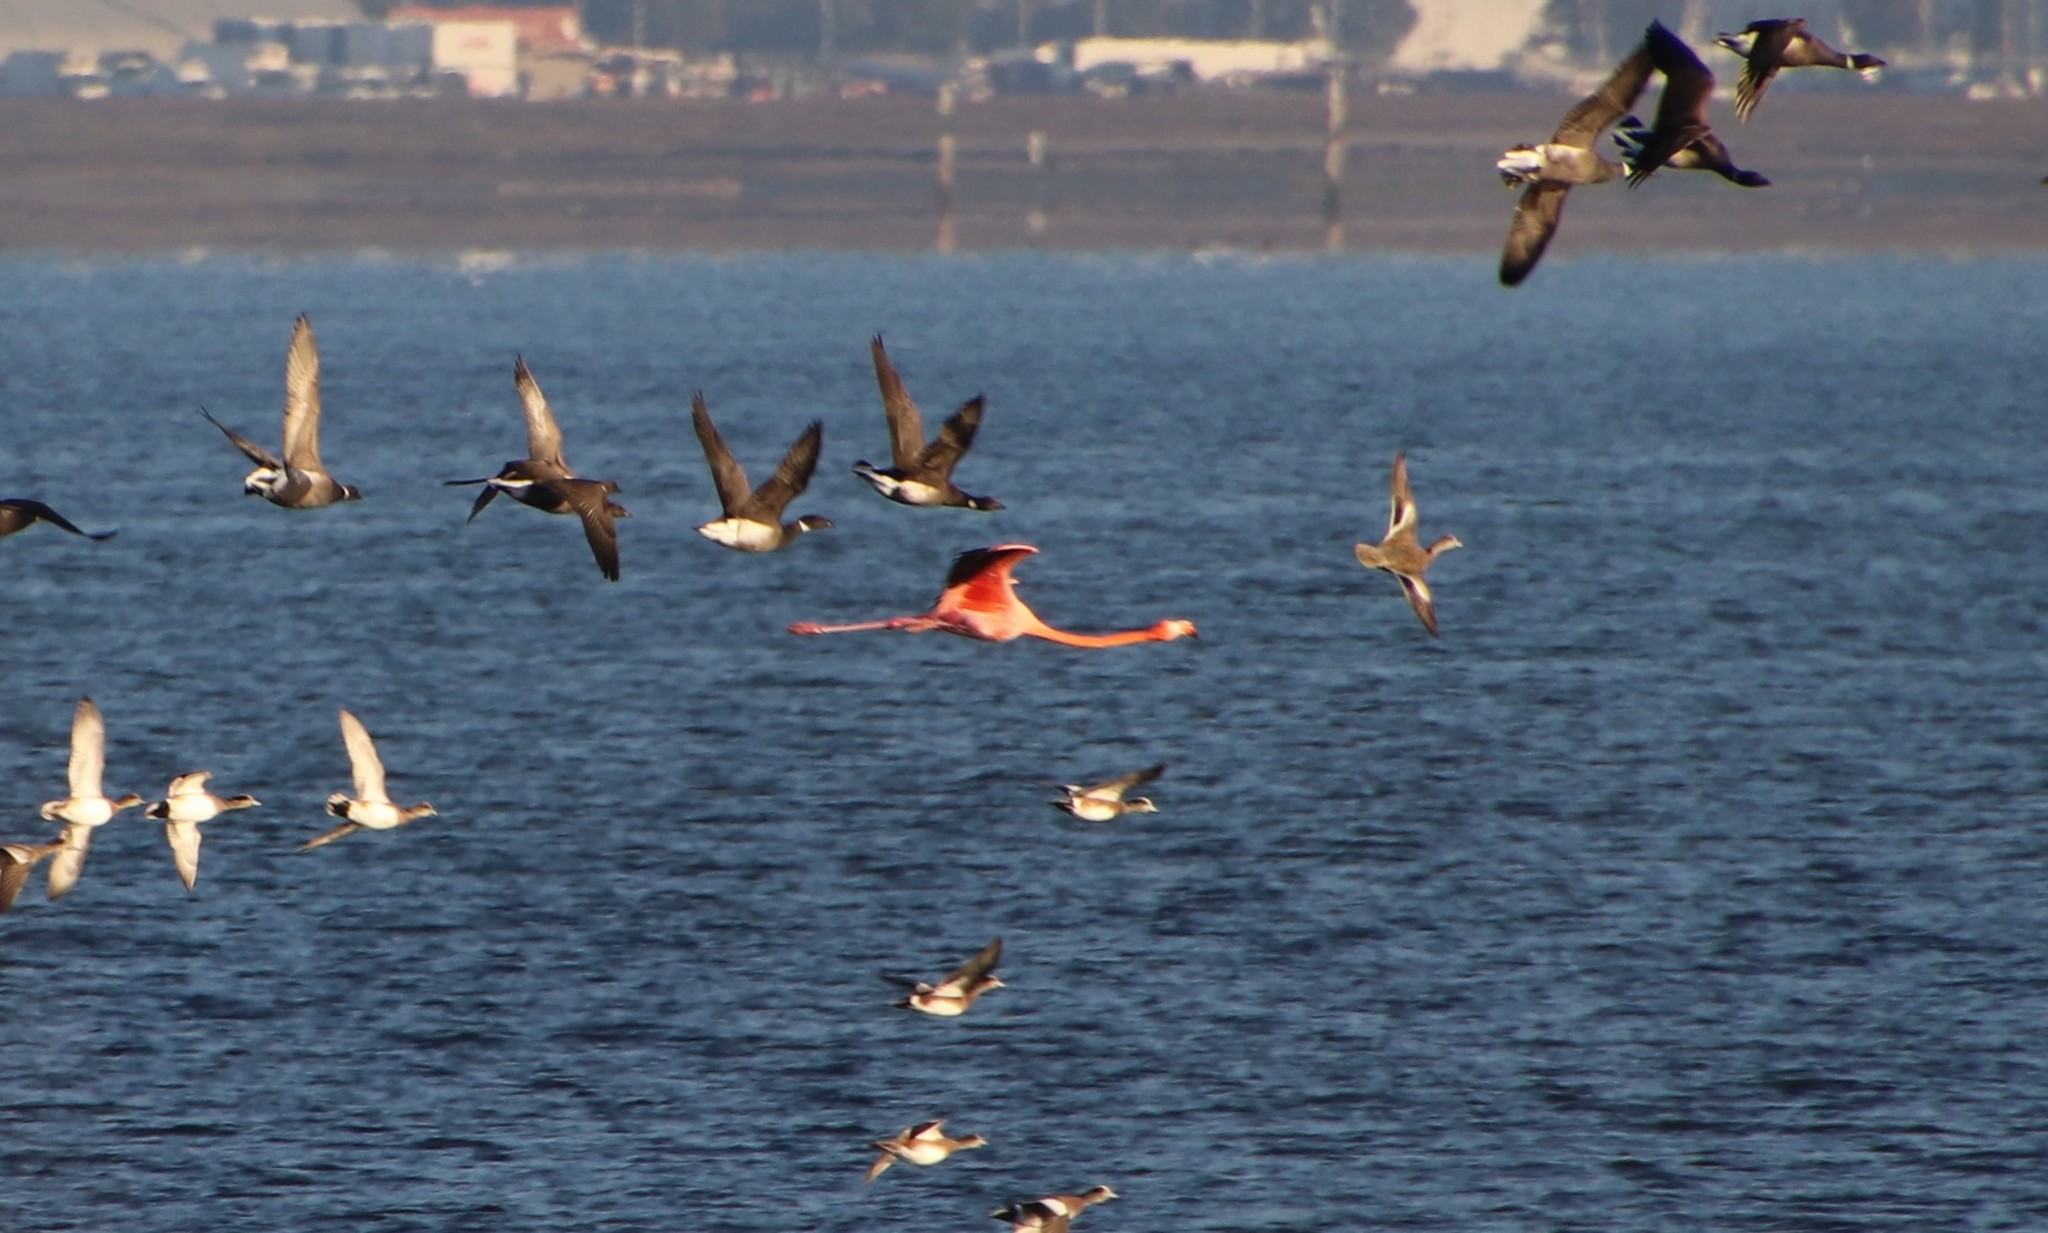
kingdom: Animalia
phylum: Chordata
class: Aves
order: Phoenicopteriformes
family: Phoenicopteridae
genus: Phoenicopterus
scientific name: Phoenicopterus ruber
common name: American flamingo
